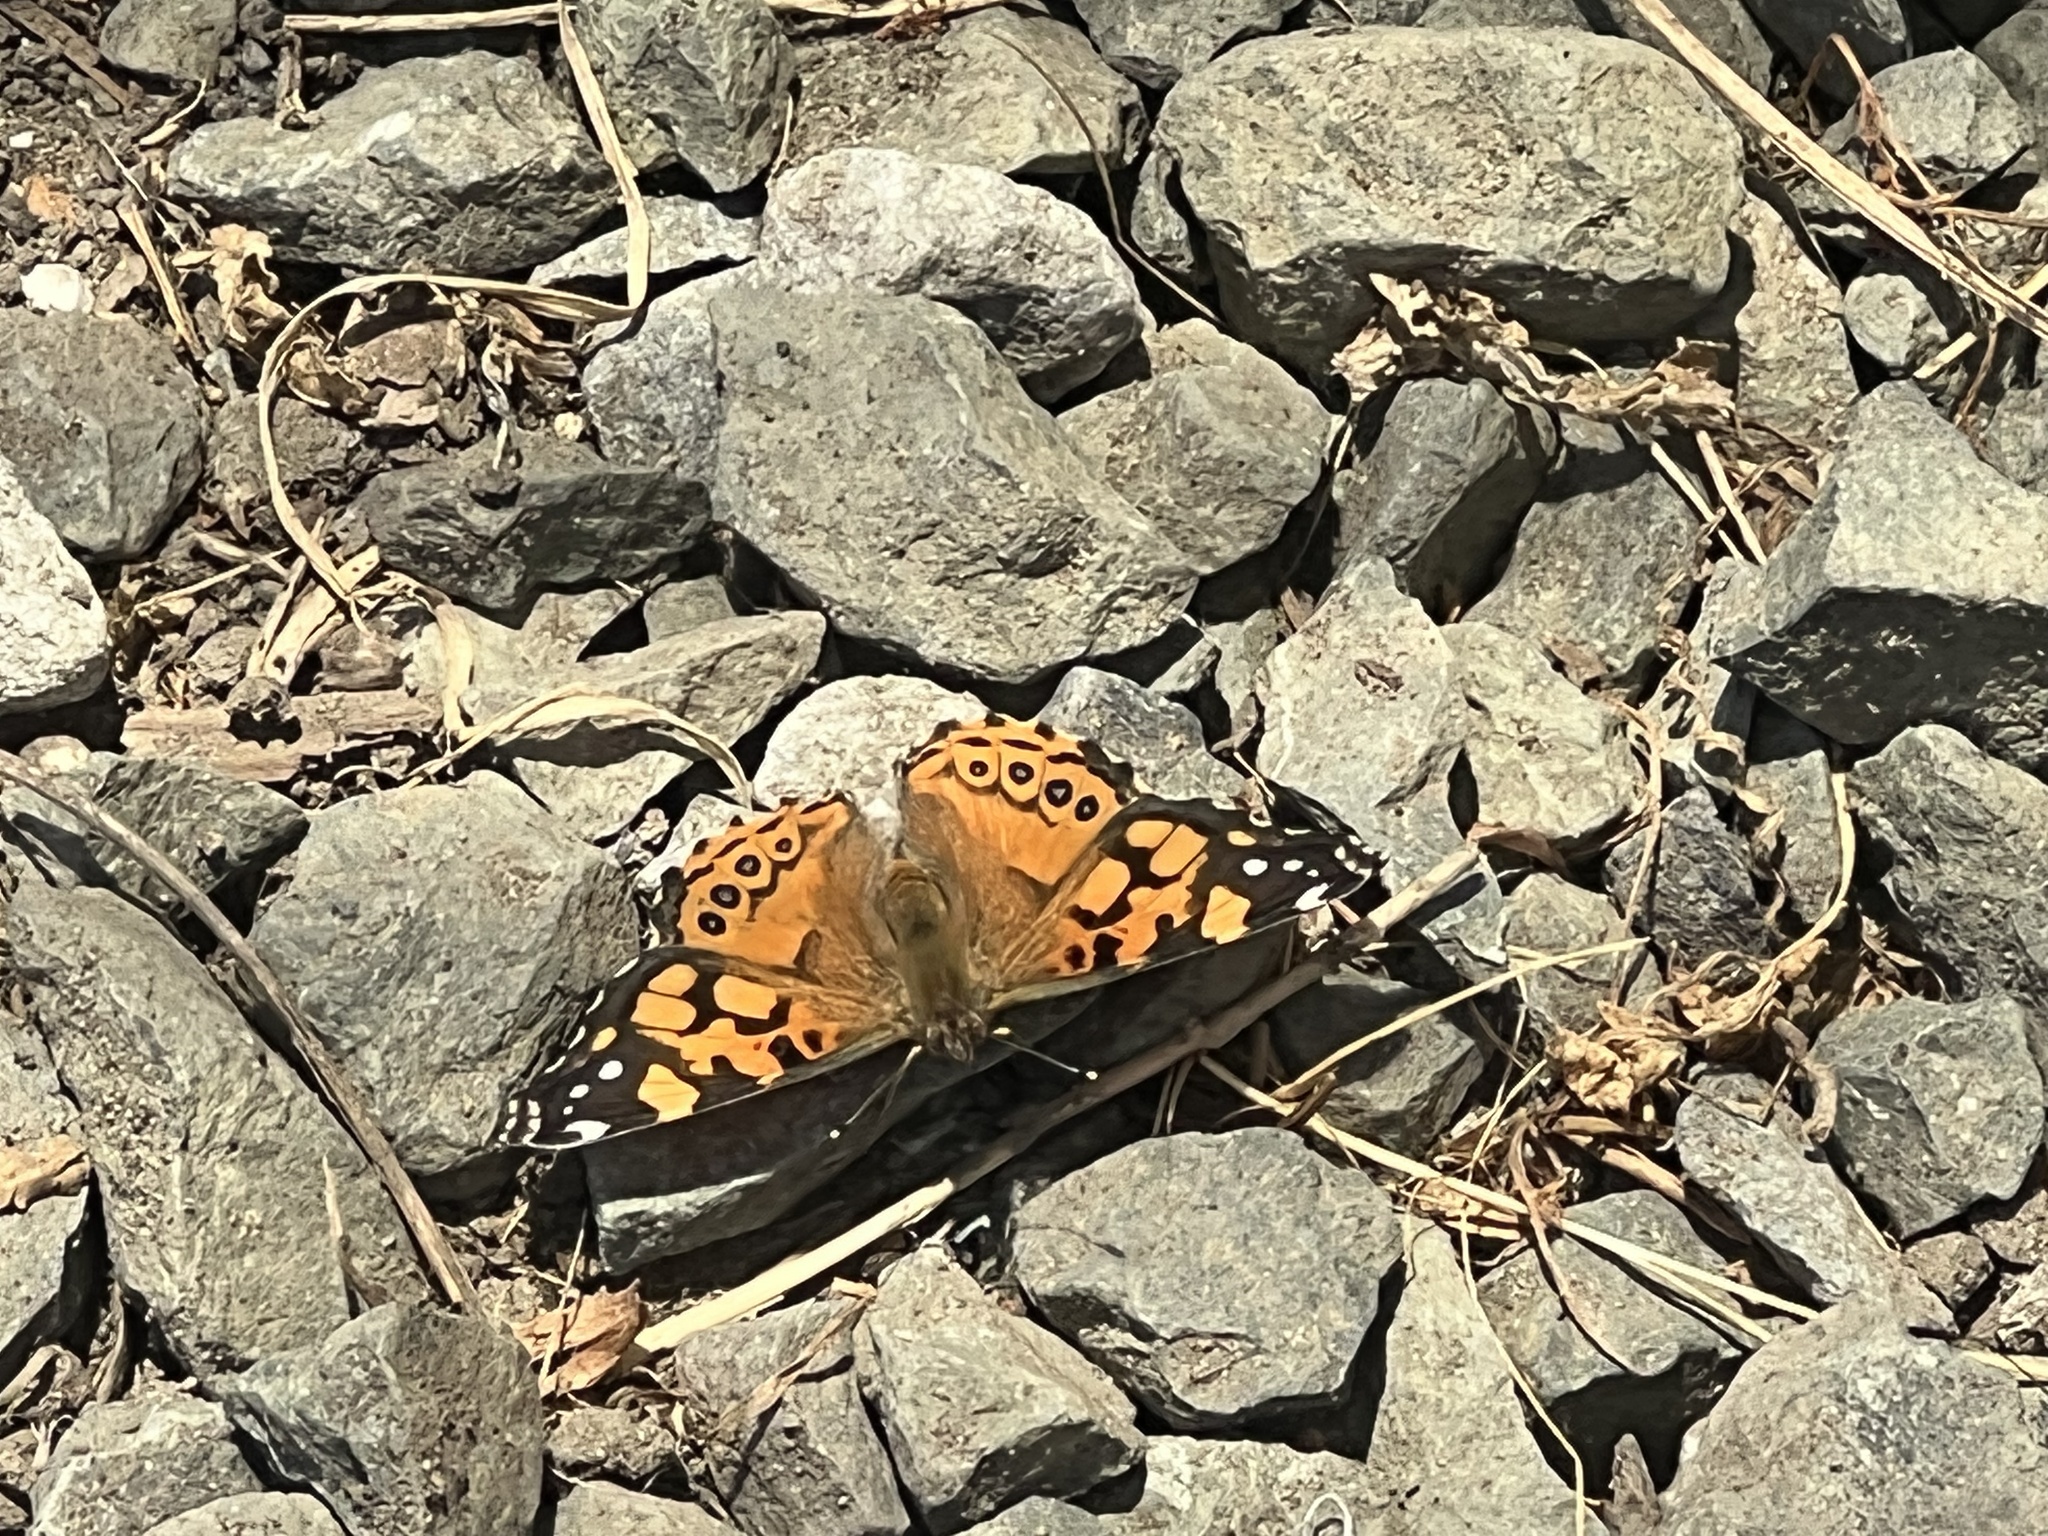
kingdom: Animalia
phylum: Arthropoda
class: Insecta
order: Lepidoptera
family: Nymphalidae
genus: Vanessa
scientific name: Vanessa annabella
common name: West coast lady
